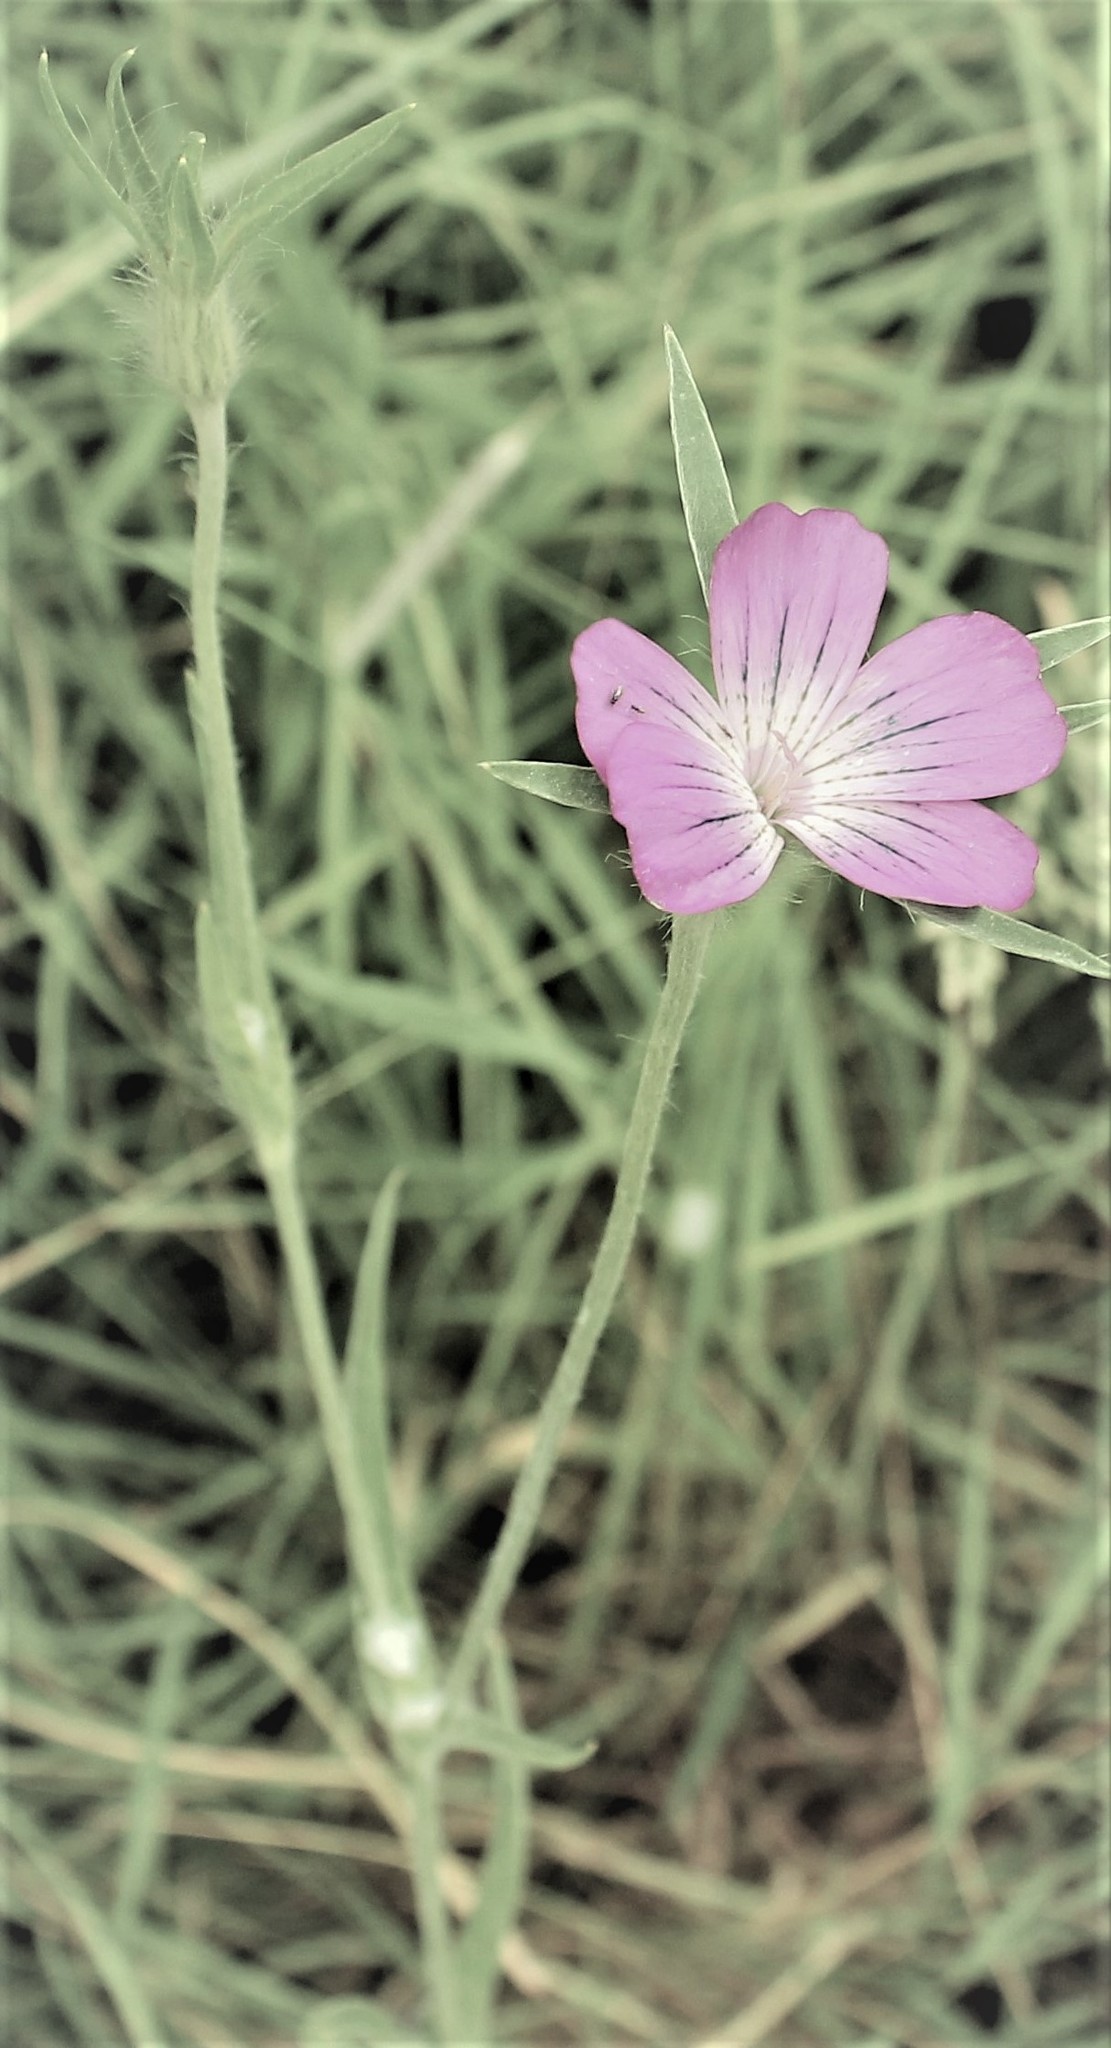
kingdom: Plantae
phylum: Tracheophyta
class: Magnoliopsida
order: Caryophyllales
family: Caryophyllaceae
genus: Agrostemma
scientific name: Agrostemma githago
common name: Common corncockle
